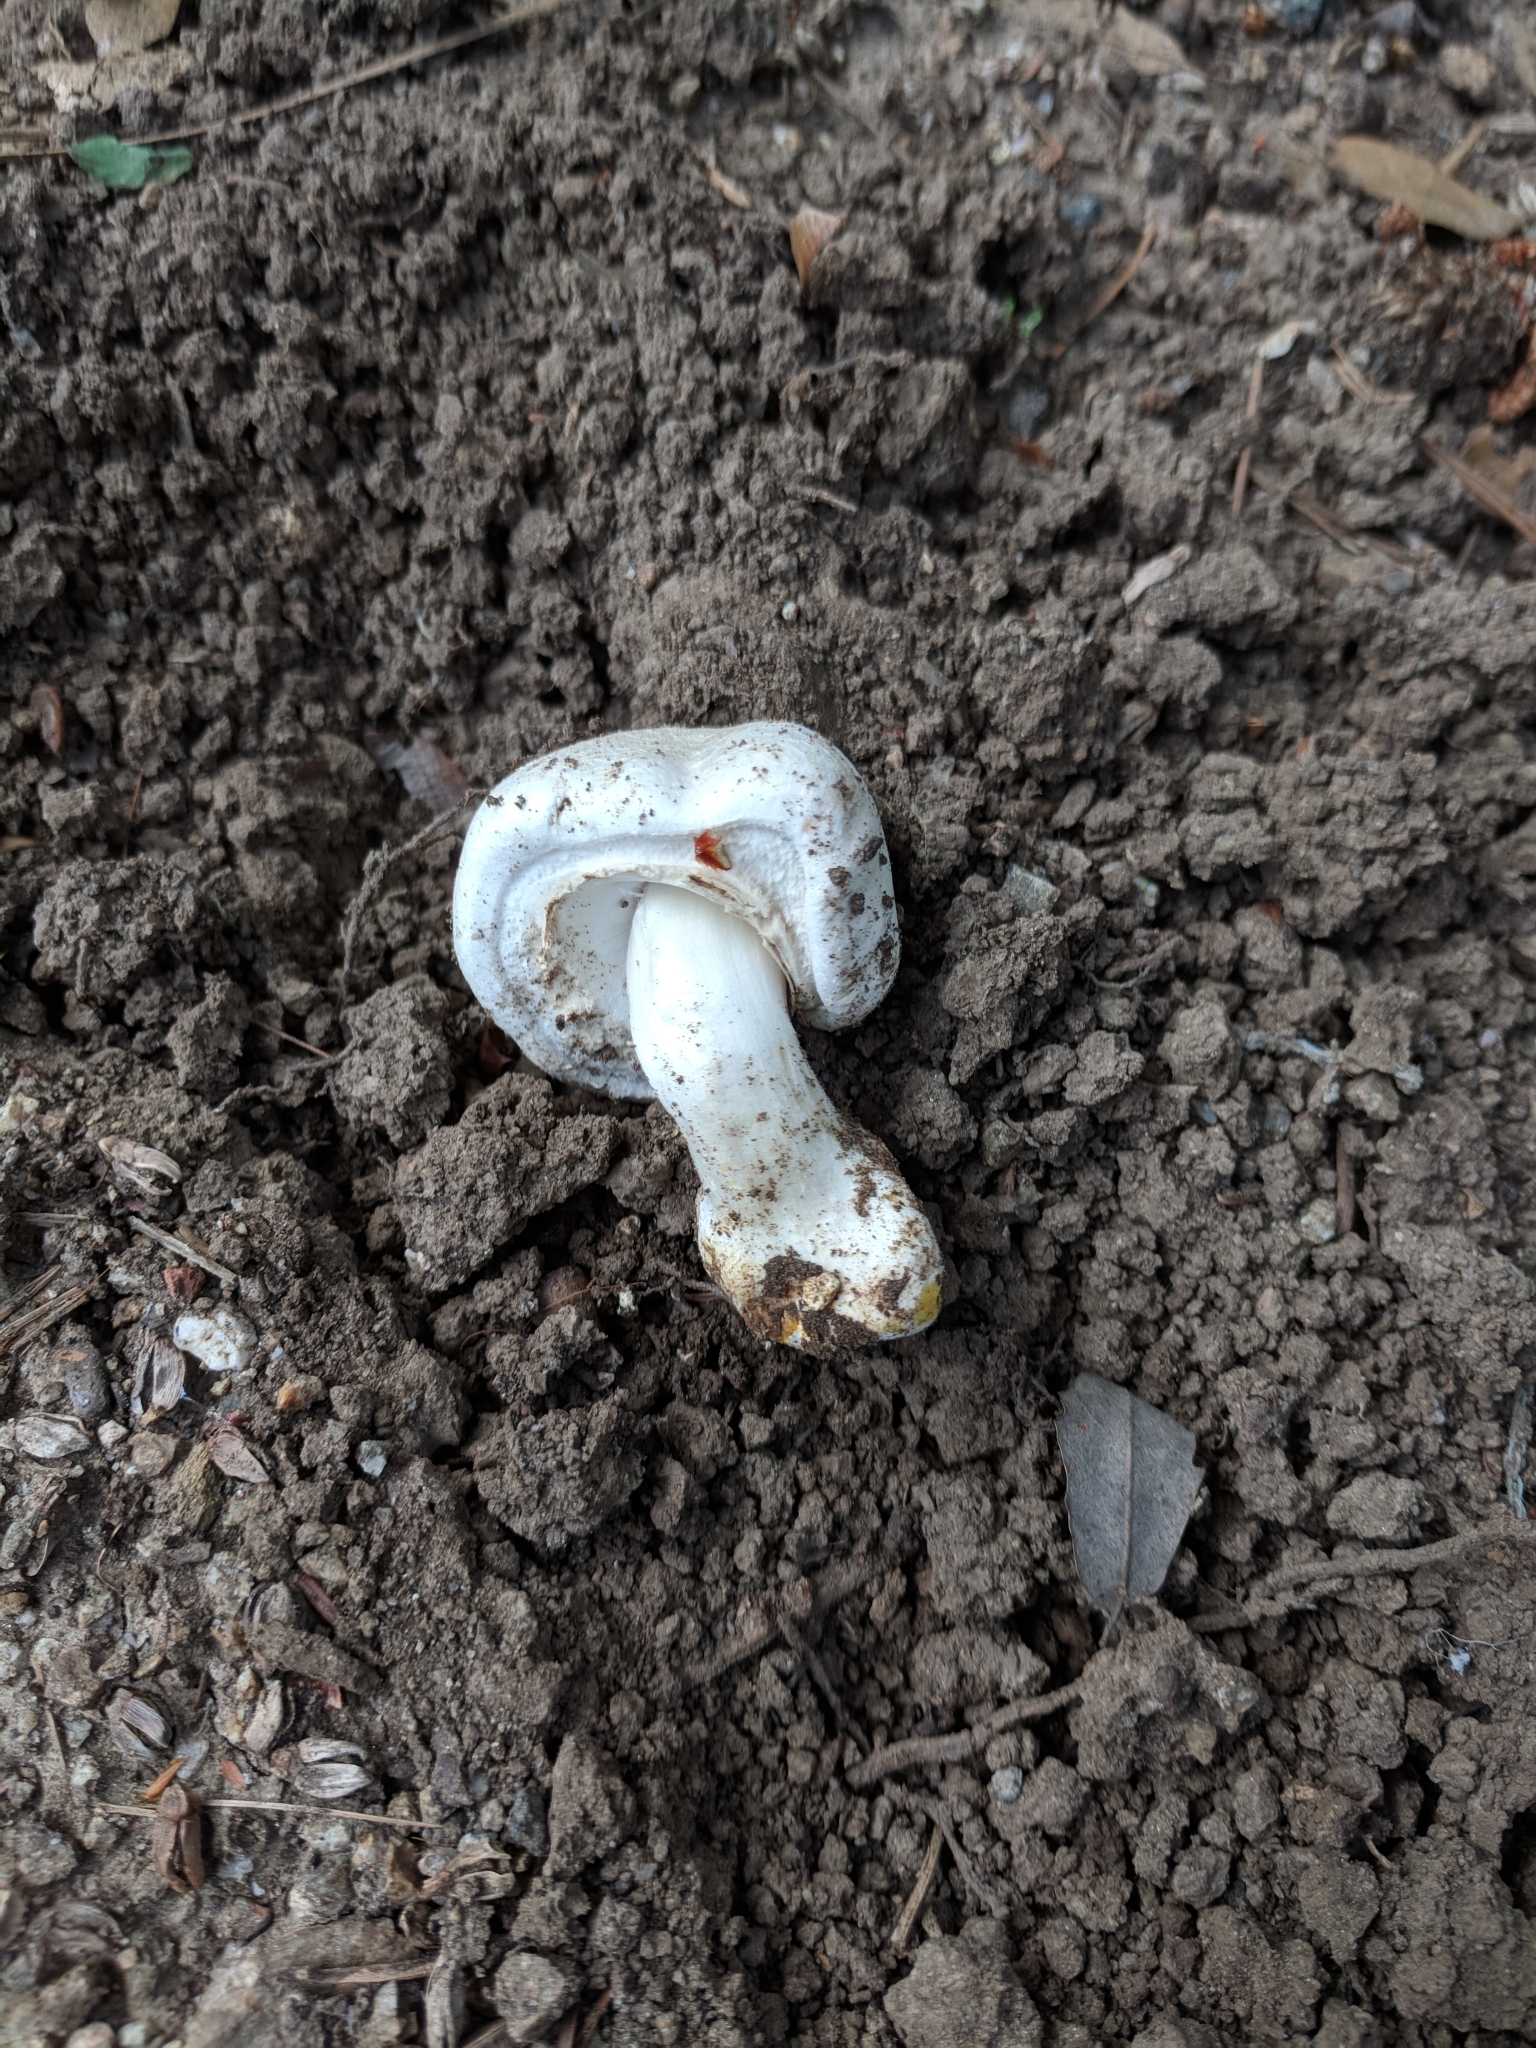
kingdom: Fungi
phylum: Basidiomycota
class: Agaricomycetes
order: Agaricales
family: Agaricaceae
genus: Agaricus
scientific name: Agaricus xanthodermus
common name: Yellow stainer
